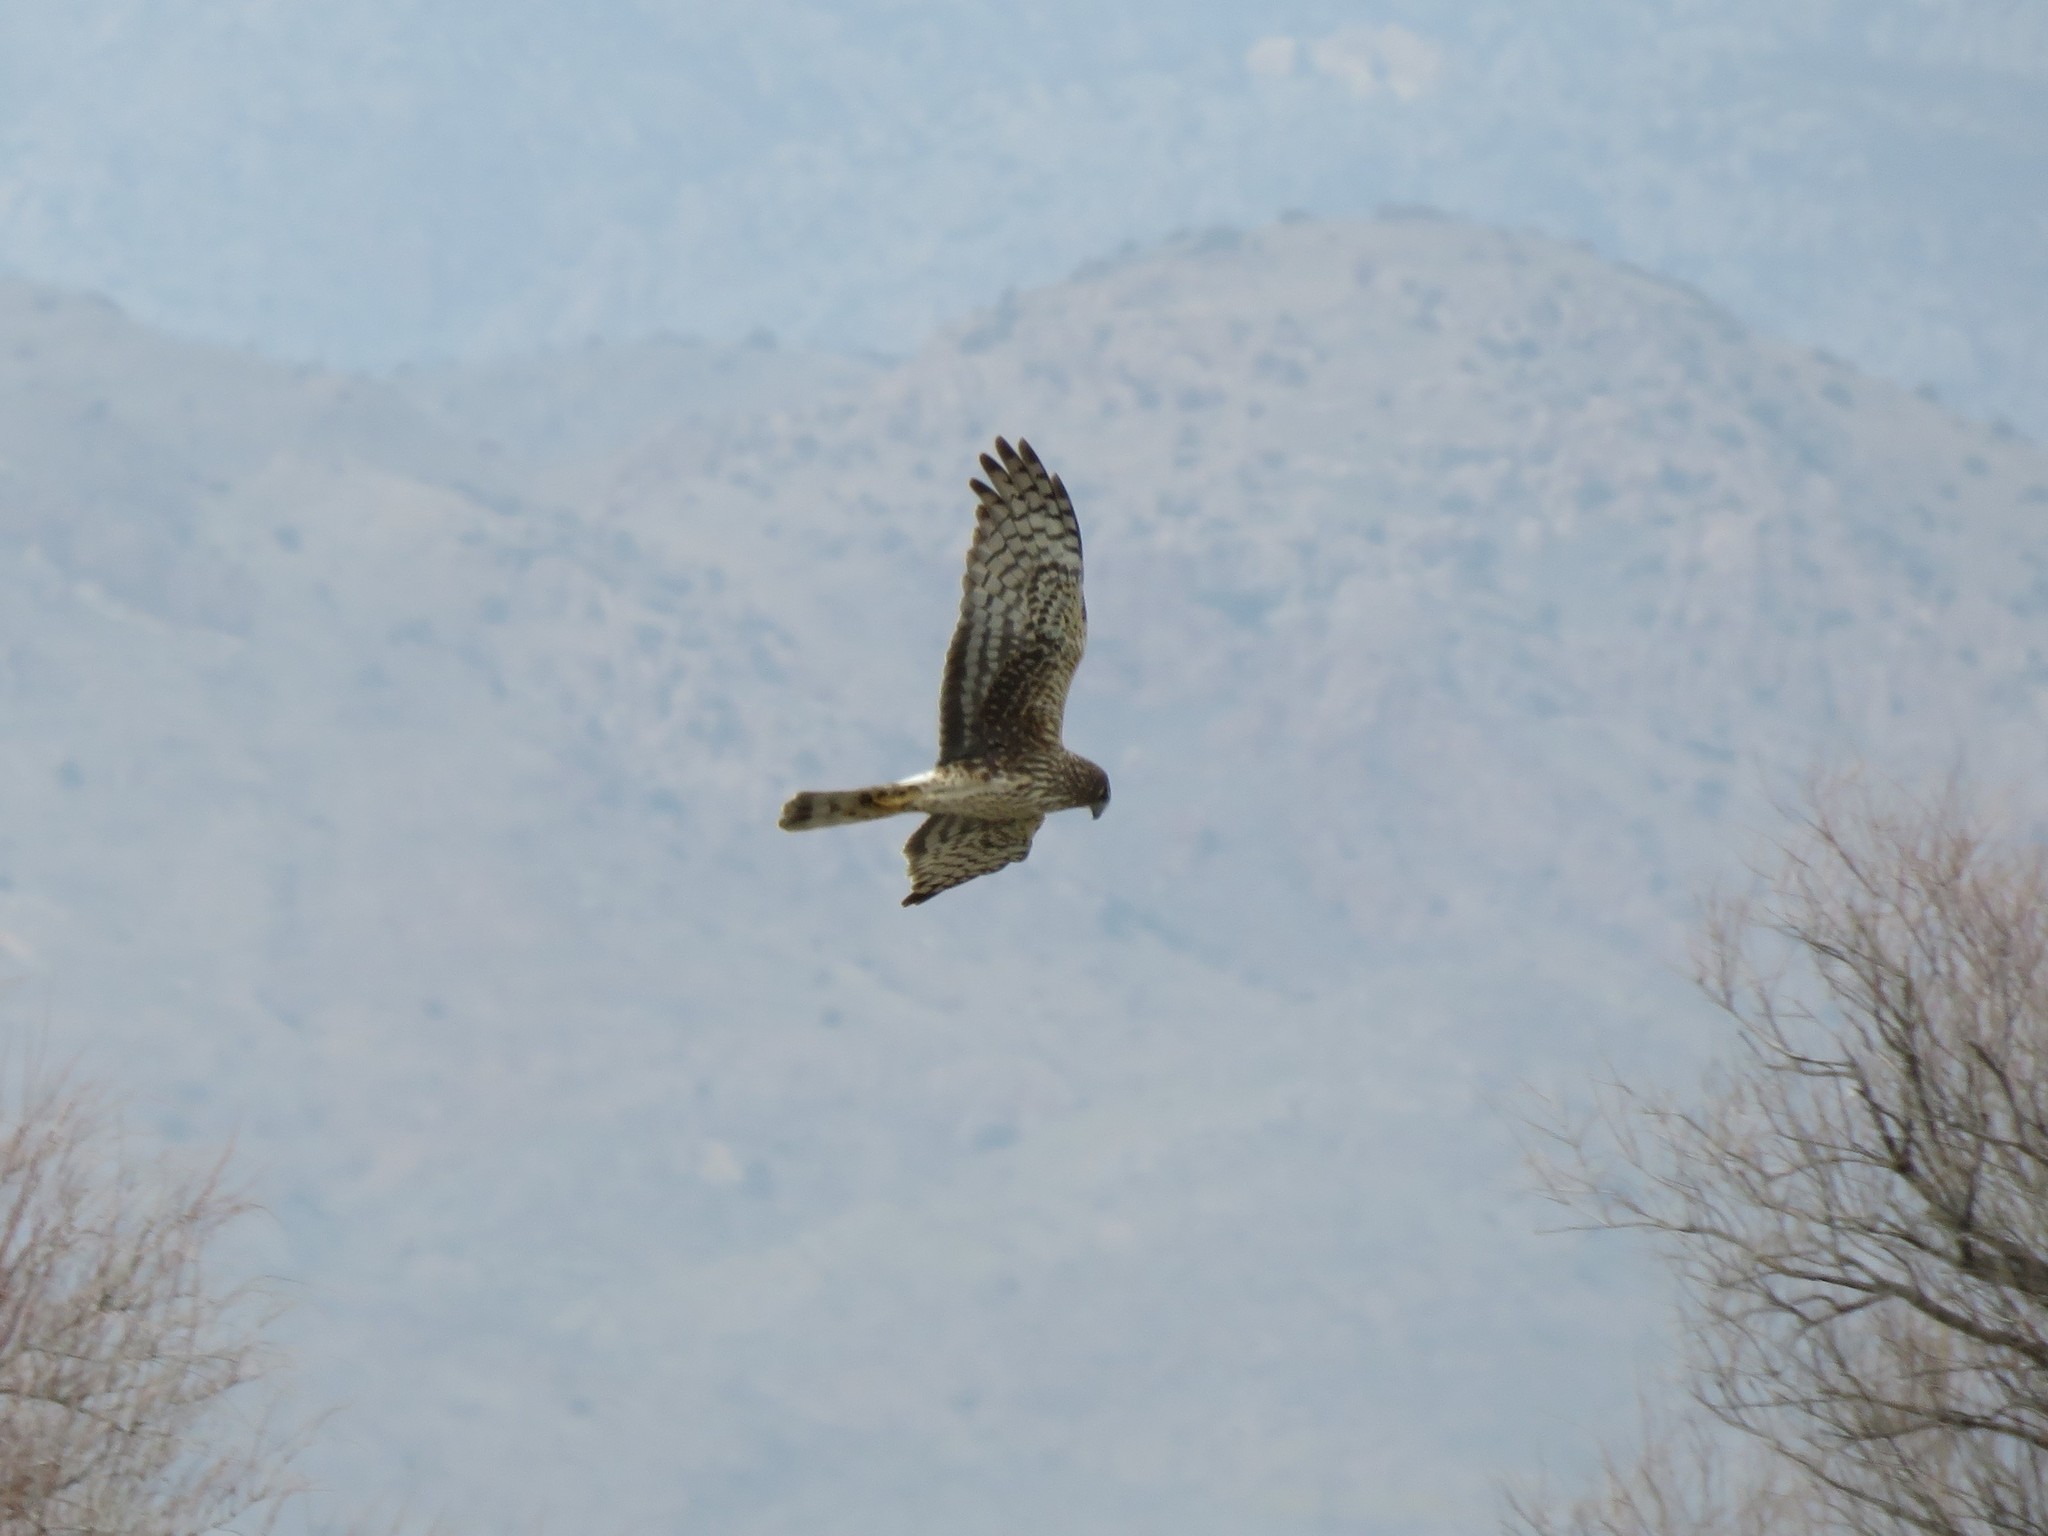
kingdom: Animalia
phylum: Chordata
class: Aves
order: Accipitriformes
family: Accipitridae
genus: Circus
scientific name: Circus cyaneus
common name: Hen harrier
